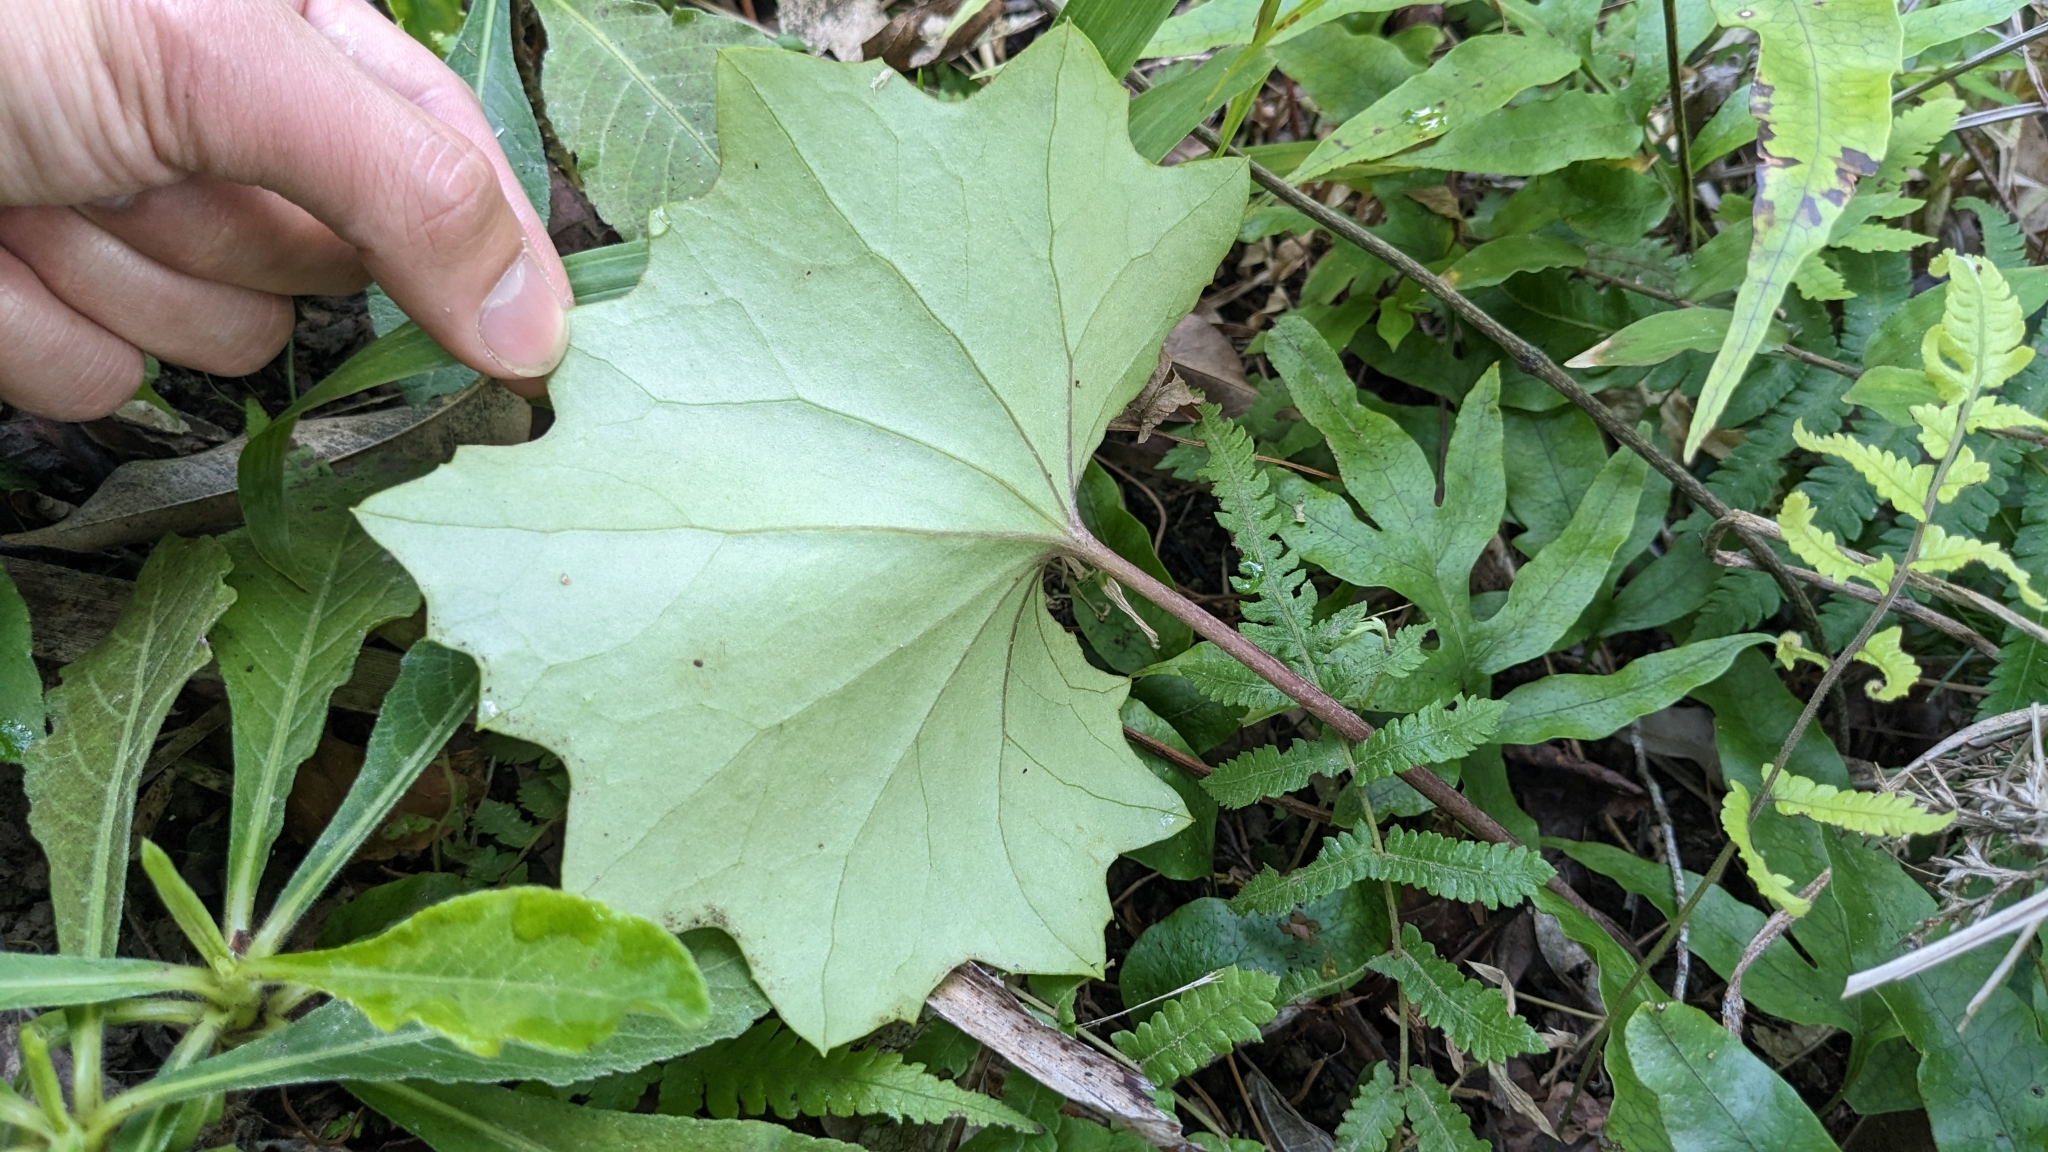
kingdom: Plantae
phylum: Tracheophyta
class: Magnoliopsida
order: Asterales
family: Asteraceae
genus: Farfugium
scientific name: Farfugium japonicum
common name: Leopardplant
